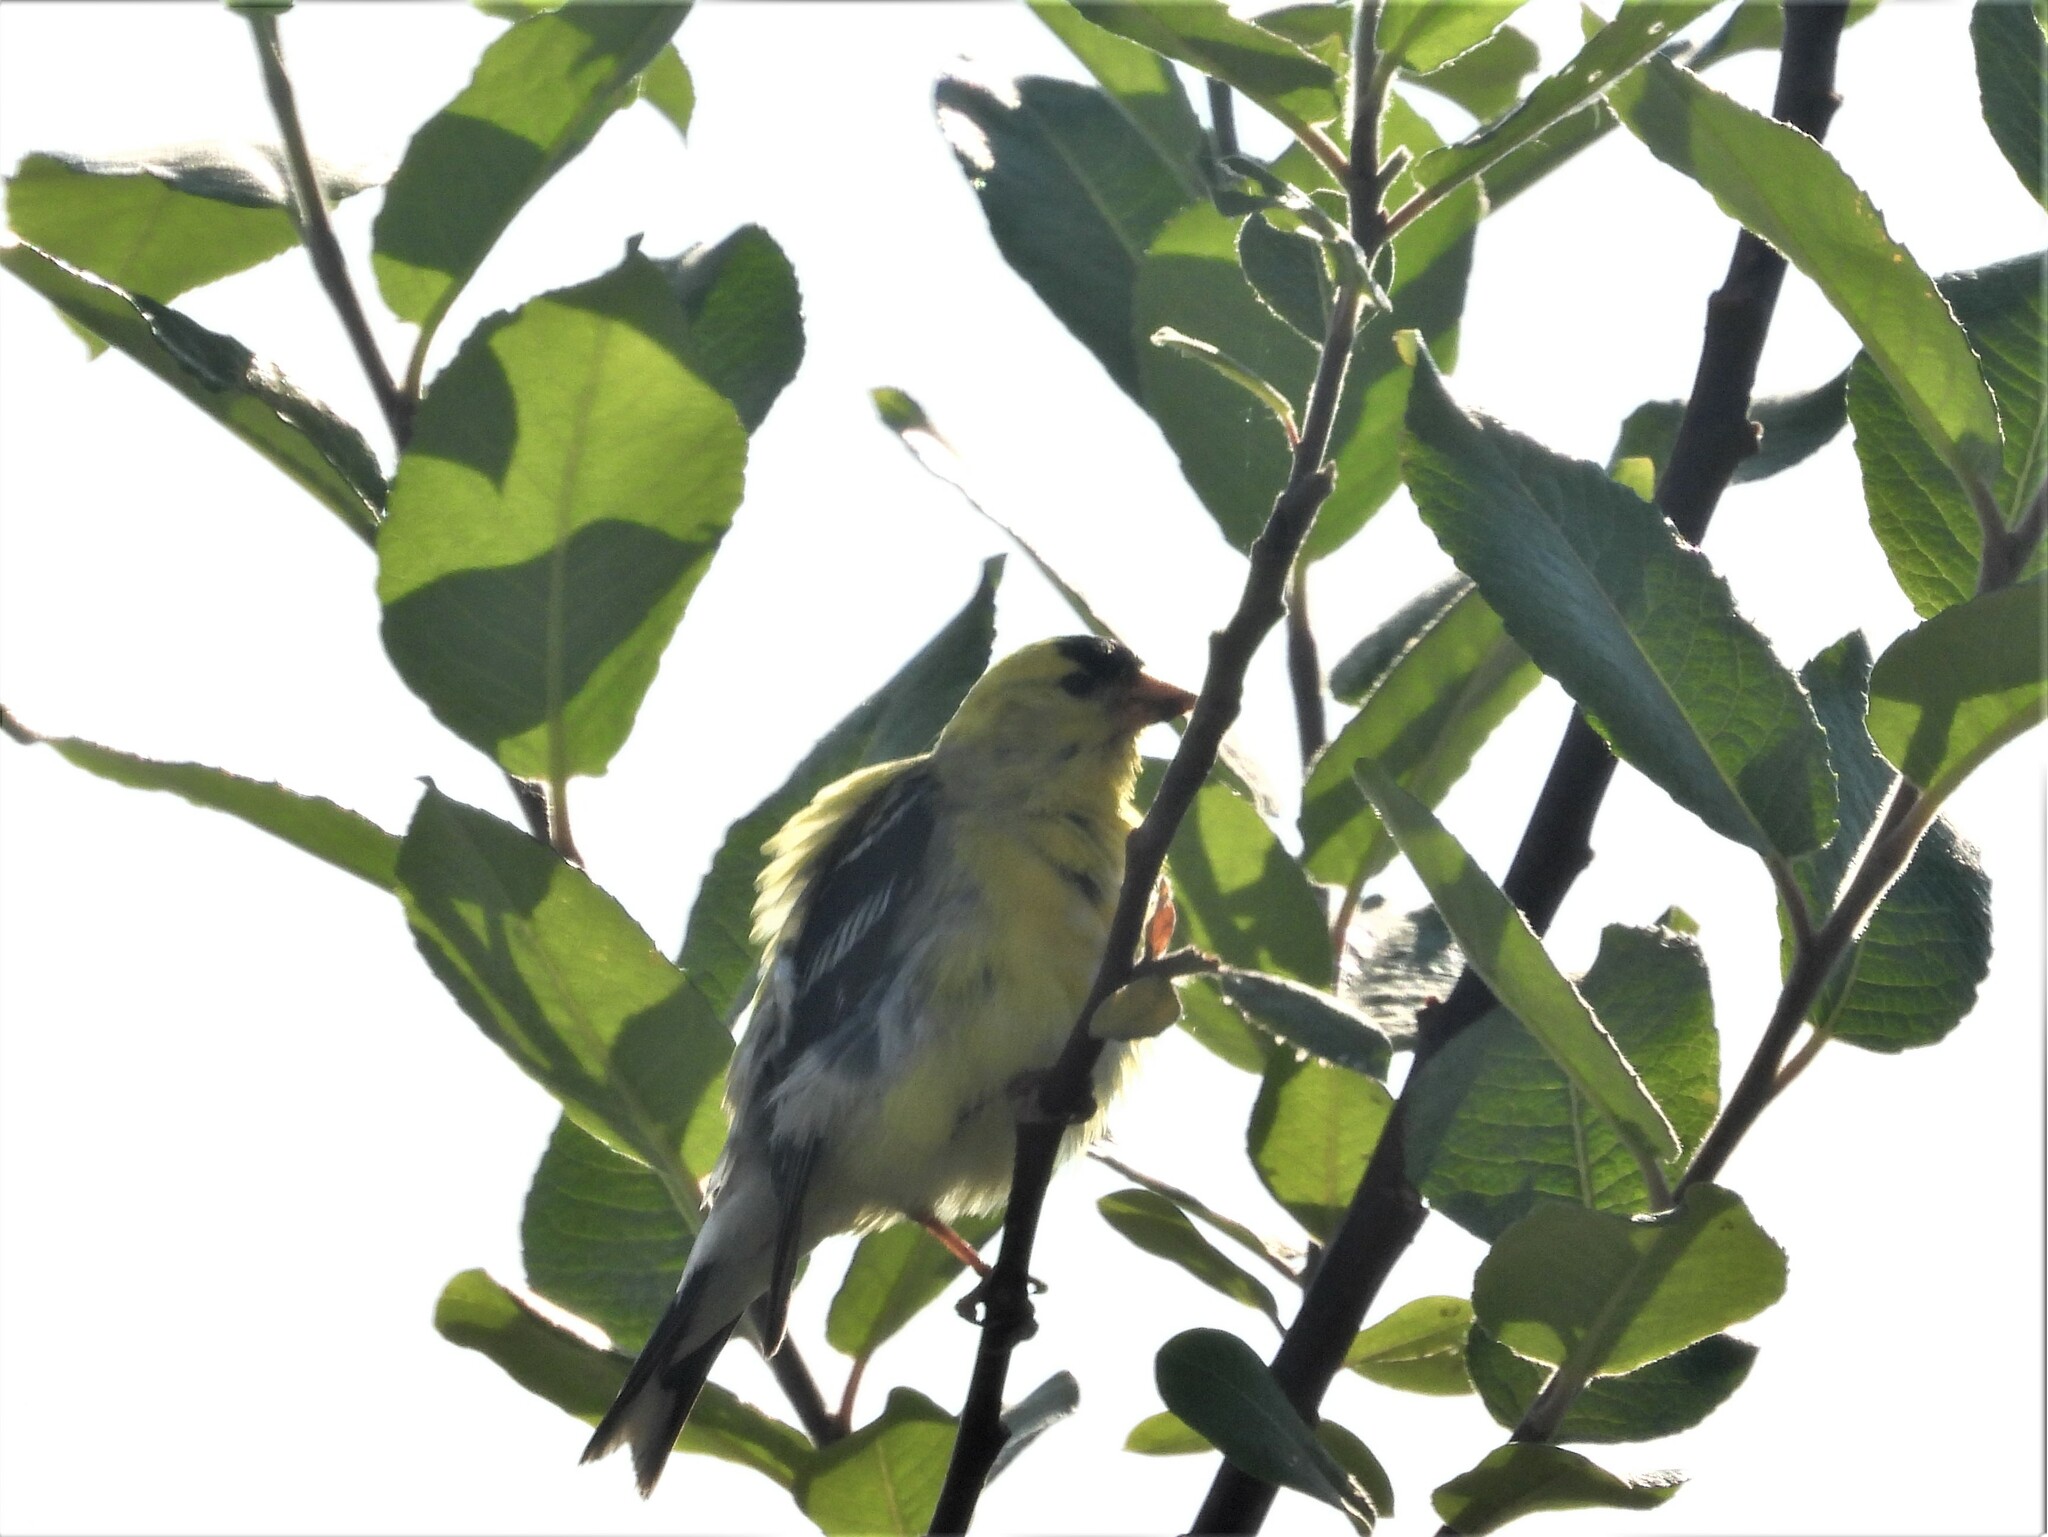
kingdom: Animalia
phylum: Chordata
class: Aves
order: Passeriformes
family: Fringillidae
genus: Spinus
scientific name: Spinus tristis
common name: American goldfinch
